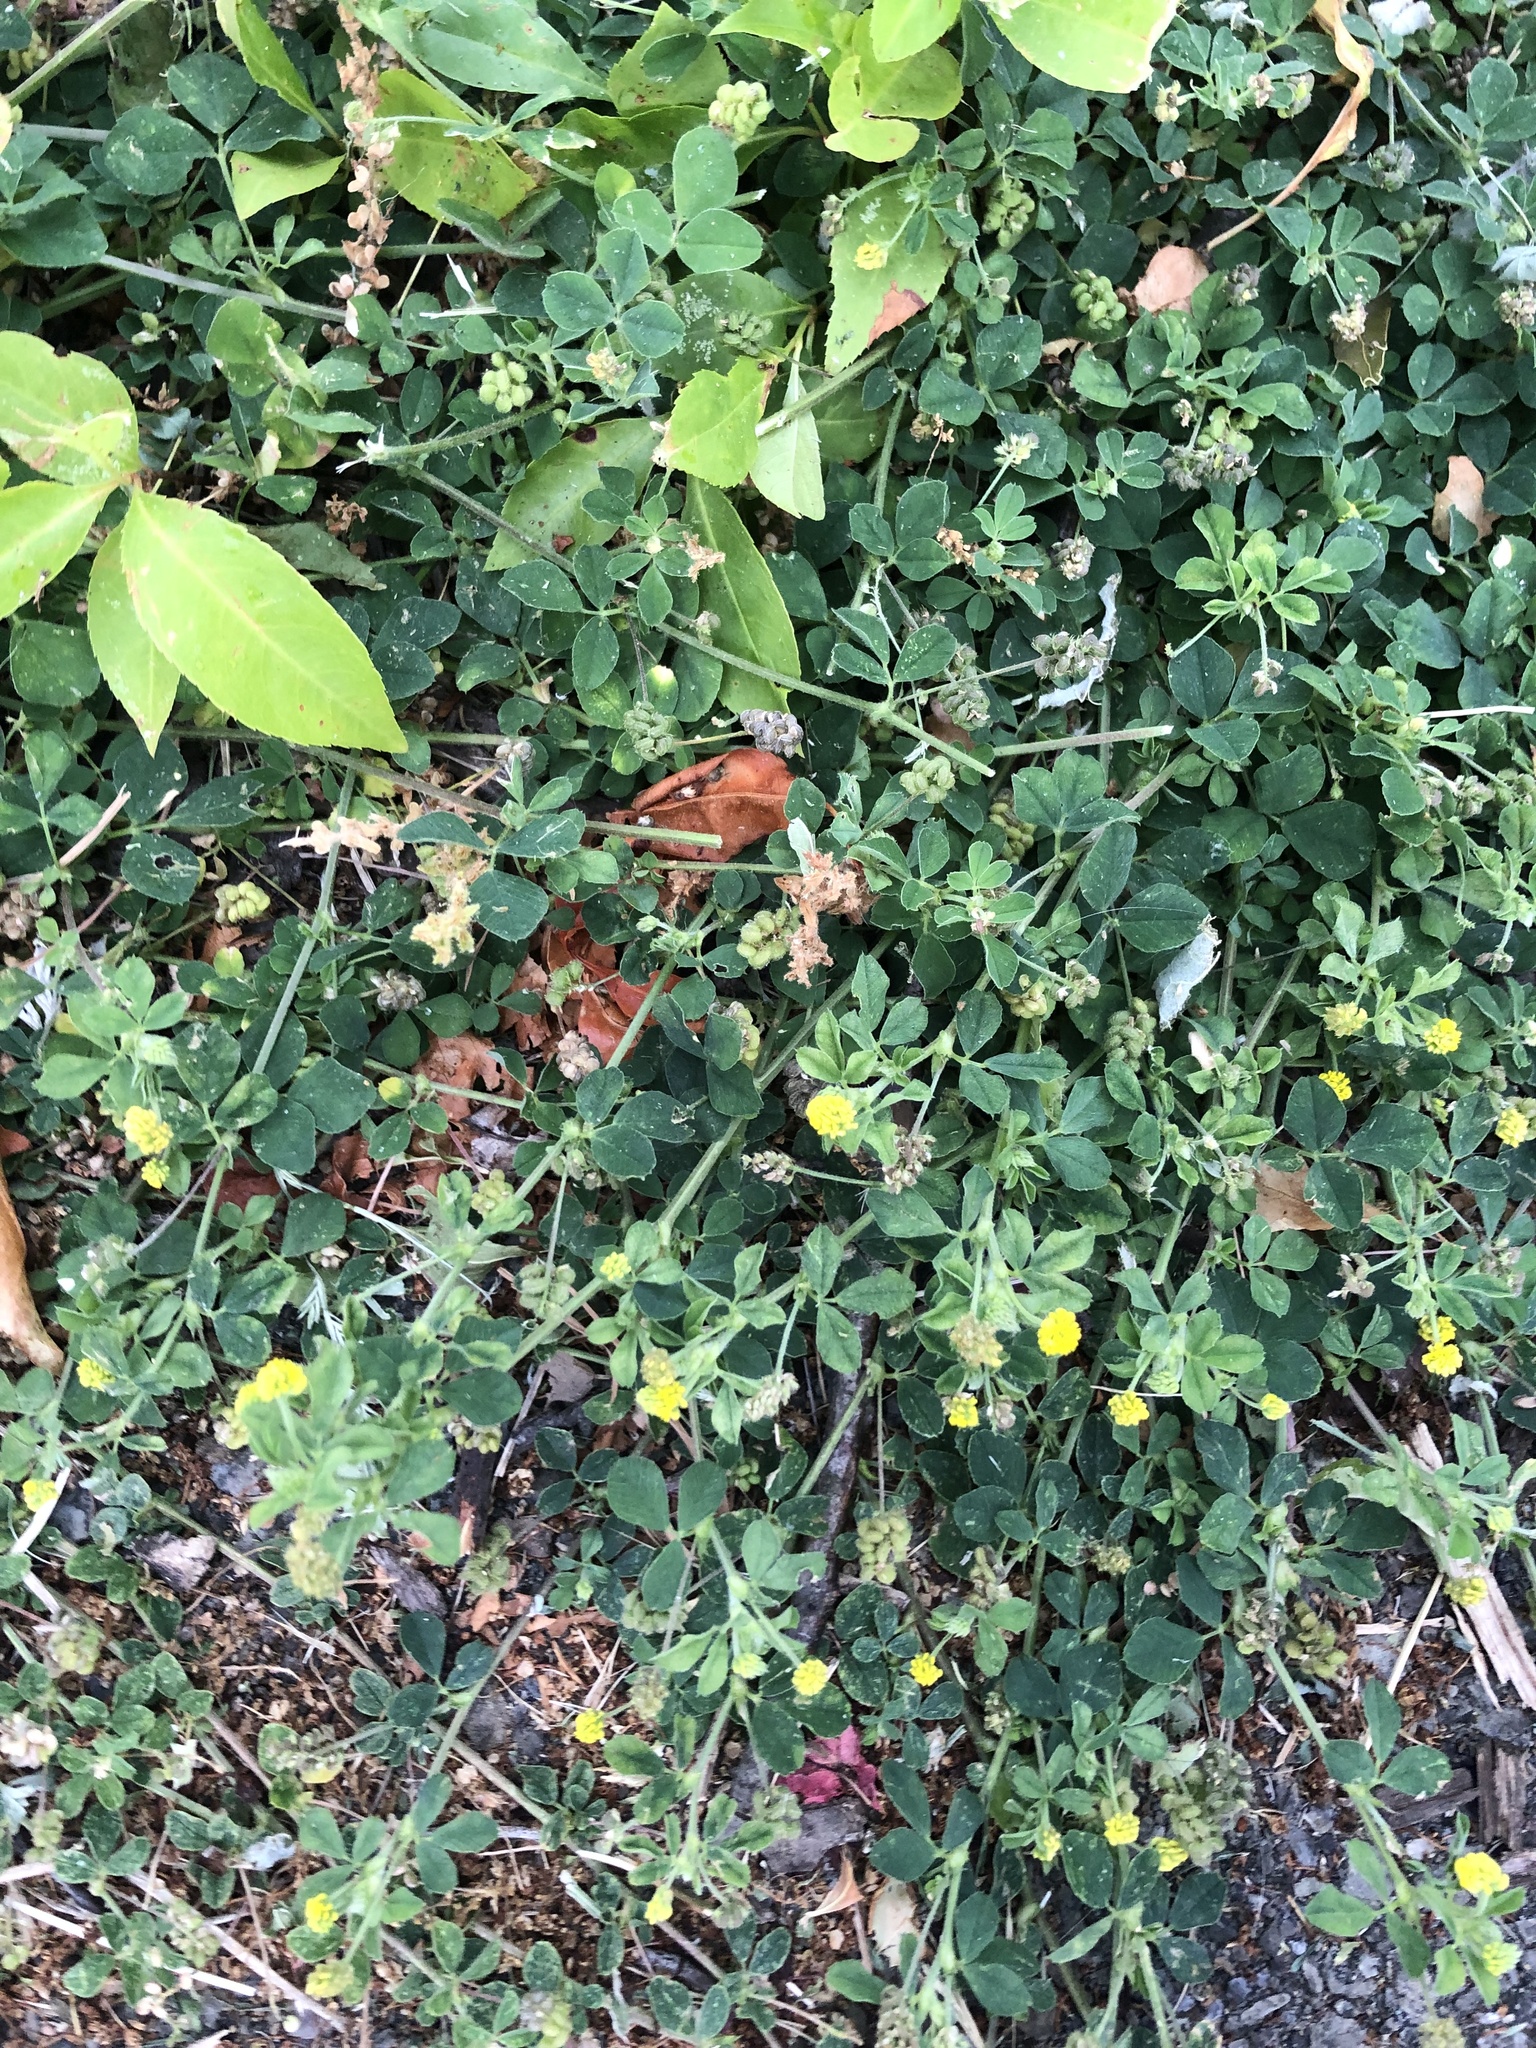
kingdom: Plantae
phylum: Tracheophyta
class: Magnoliopsida
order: Fabales
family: Fabaceae
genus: Medicago
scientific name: Medicago lupulina
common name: Black medick
